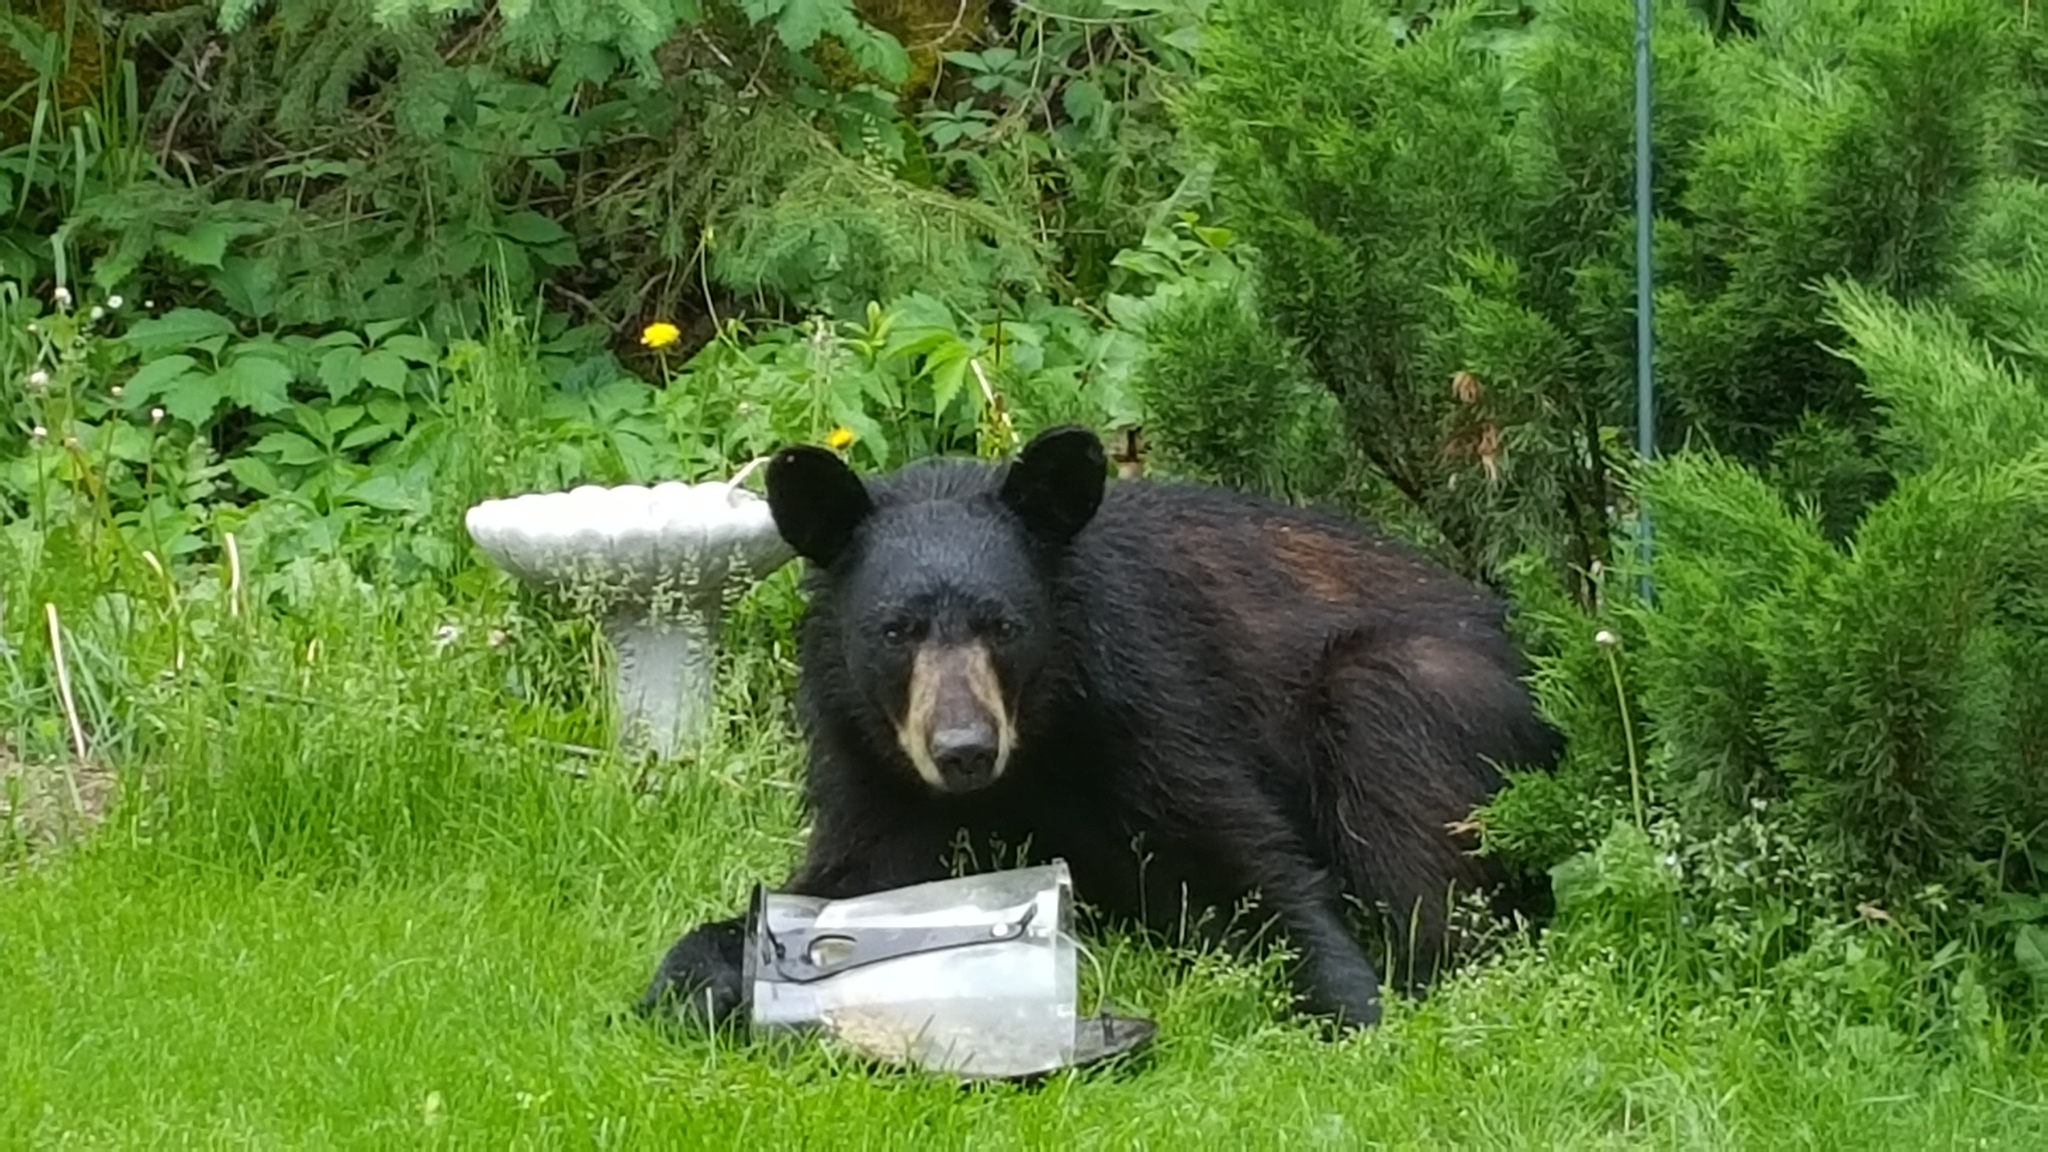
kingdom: Animalia
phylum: Chordata
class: Mammalia
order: Carnivora
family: Ursidae
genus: Ursus
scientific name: Ursus americanus
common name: American black bear
